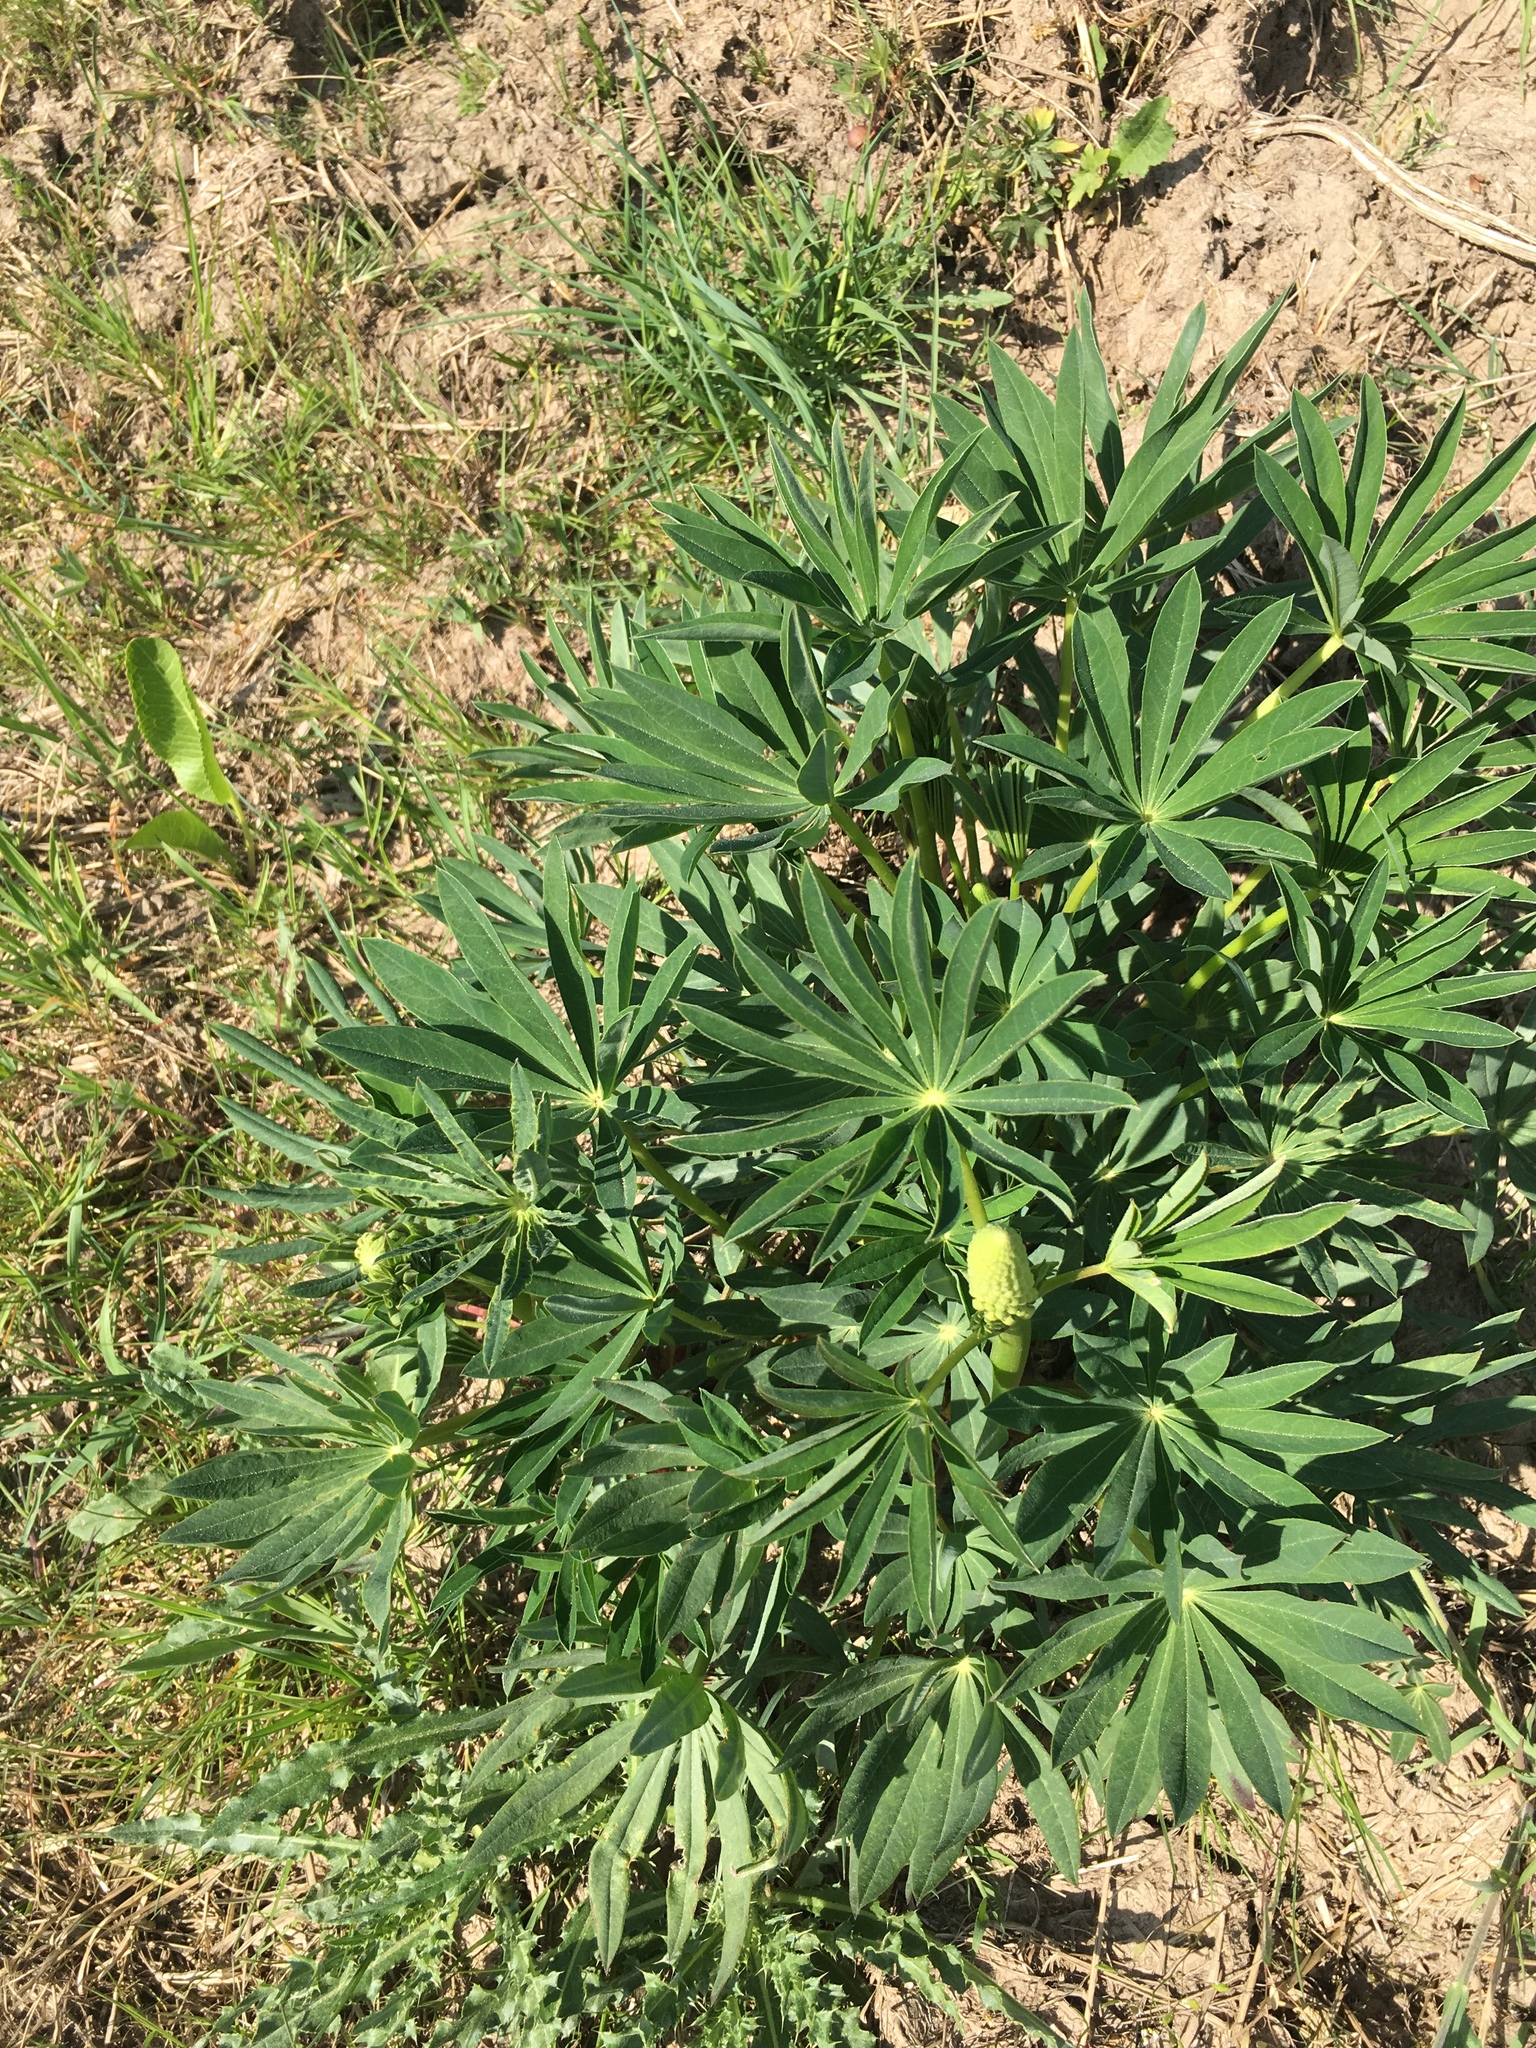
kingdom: Plantae
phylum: Tracheophyta
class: Magnoliopsida
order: Fabales
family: Fabaceae
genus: Lupinus
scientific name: Lupinus polyphyllus
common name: Garden lupin
